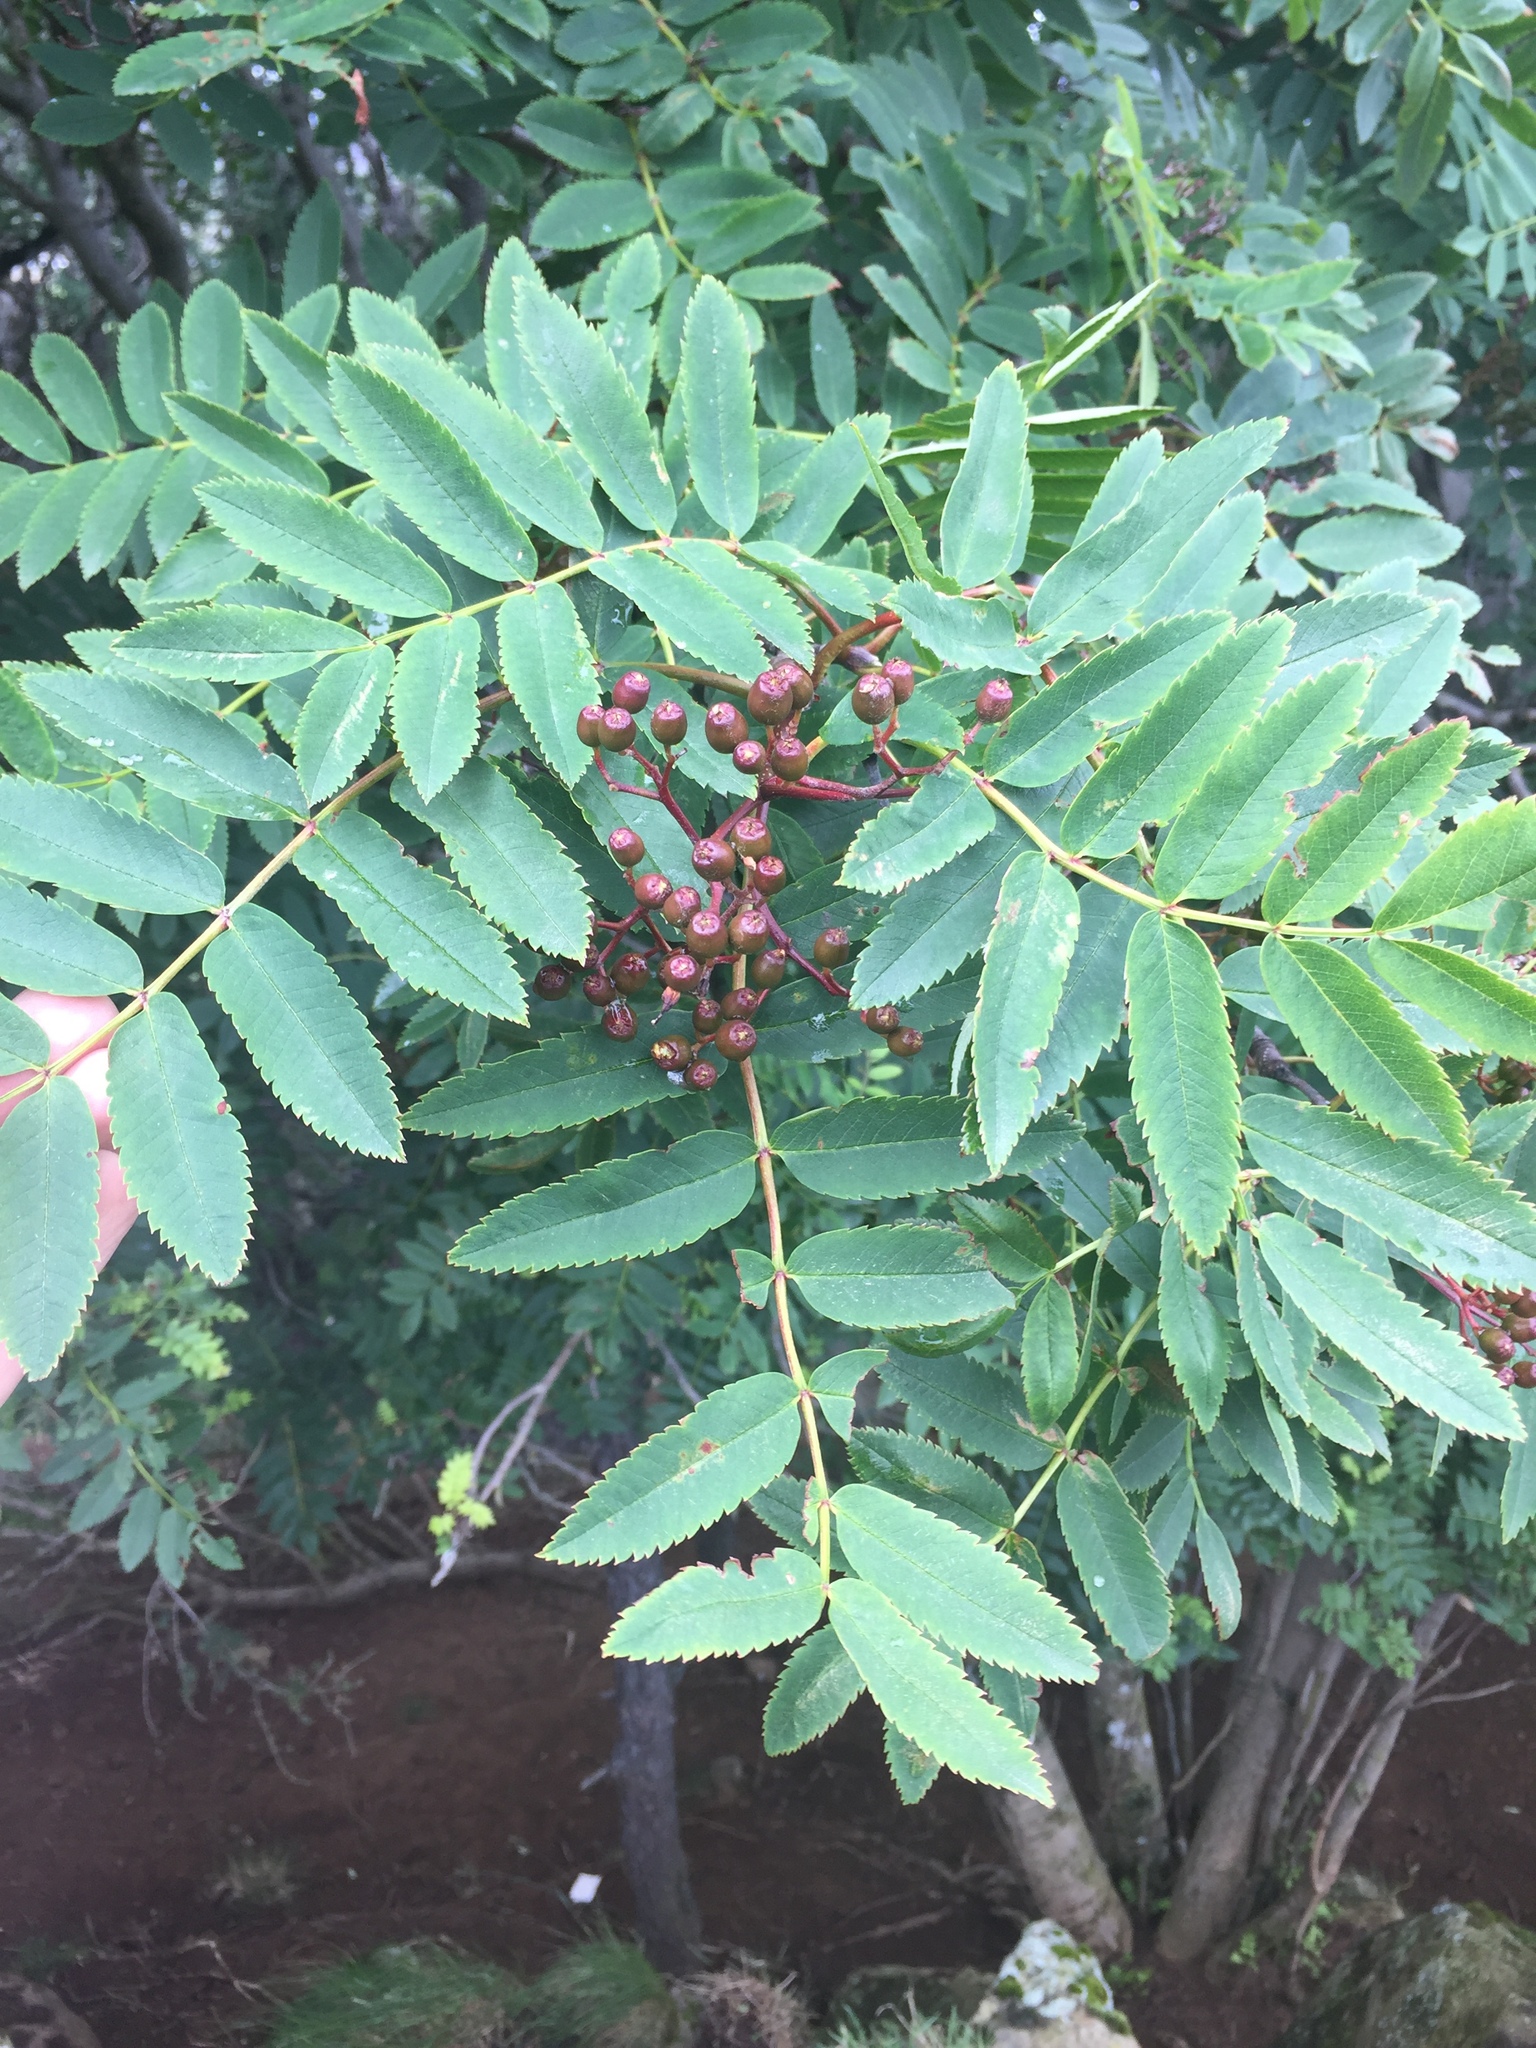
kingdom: Plantae
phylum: Tracheophyta
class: Magnoliopsida
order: Rosales
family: Rosaceae
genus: Sorbus
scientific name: Sorbus aucuparia
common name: Rowan
